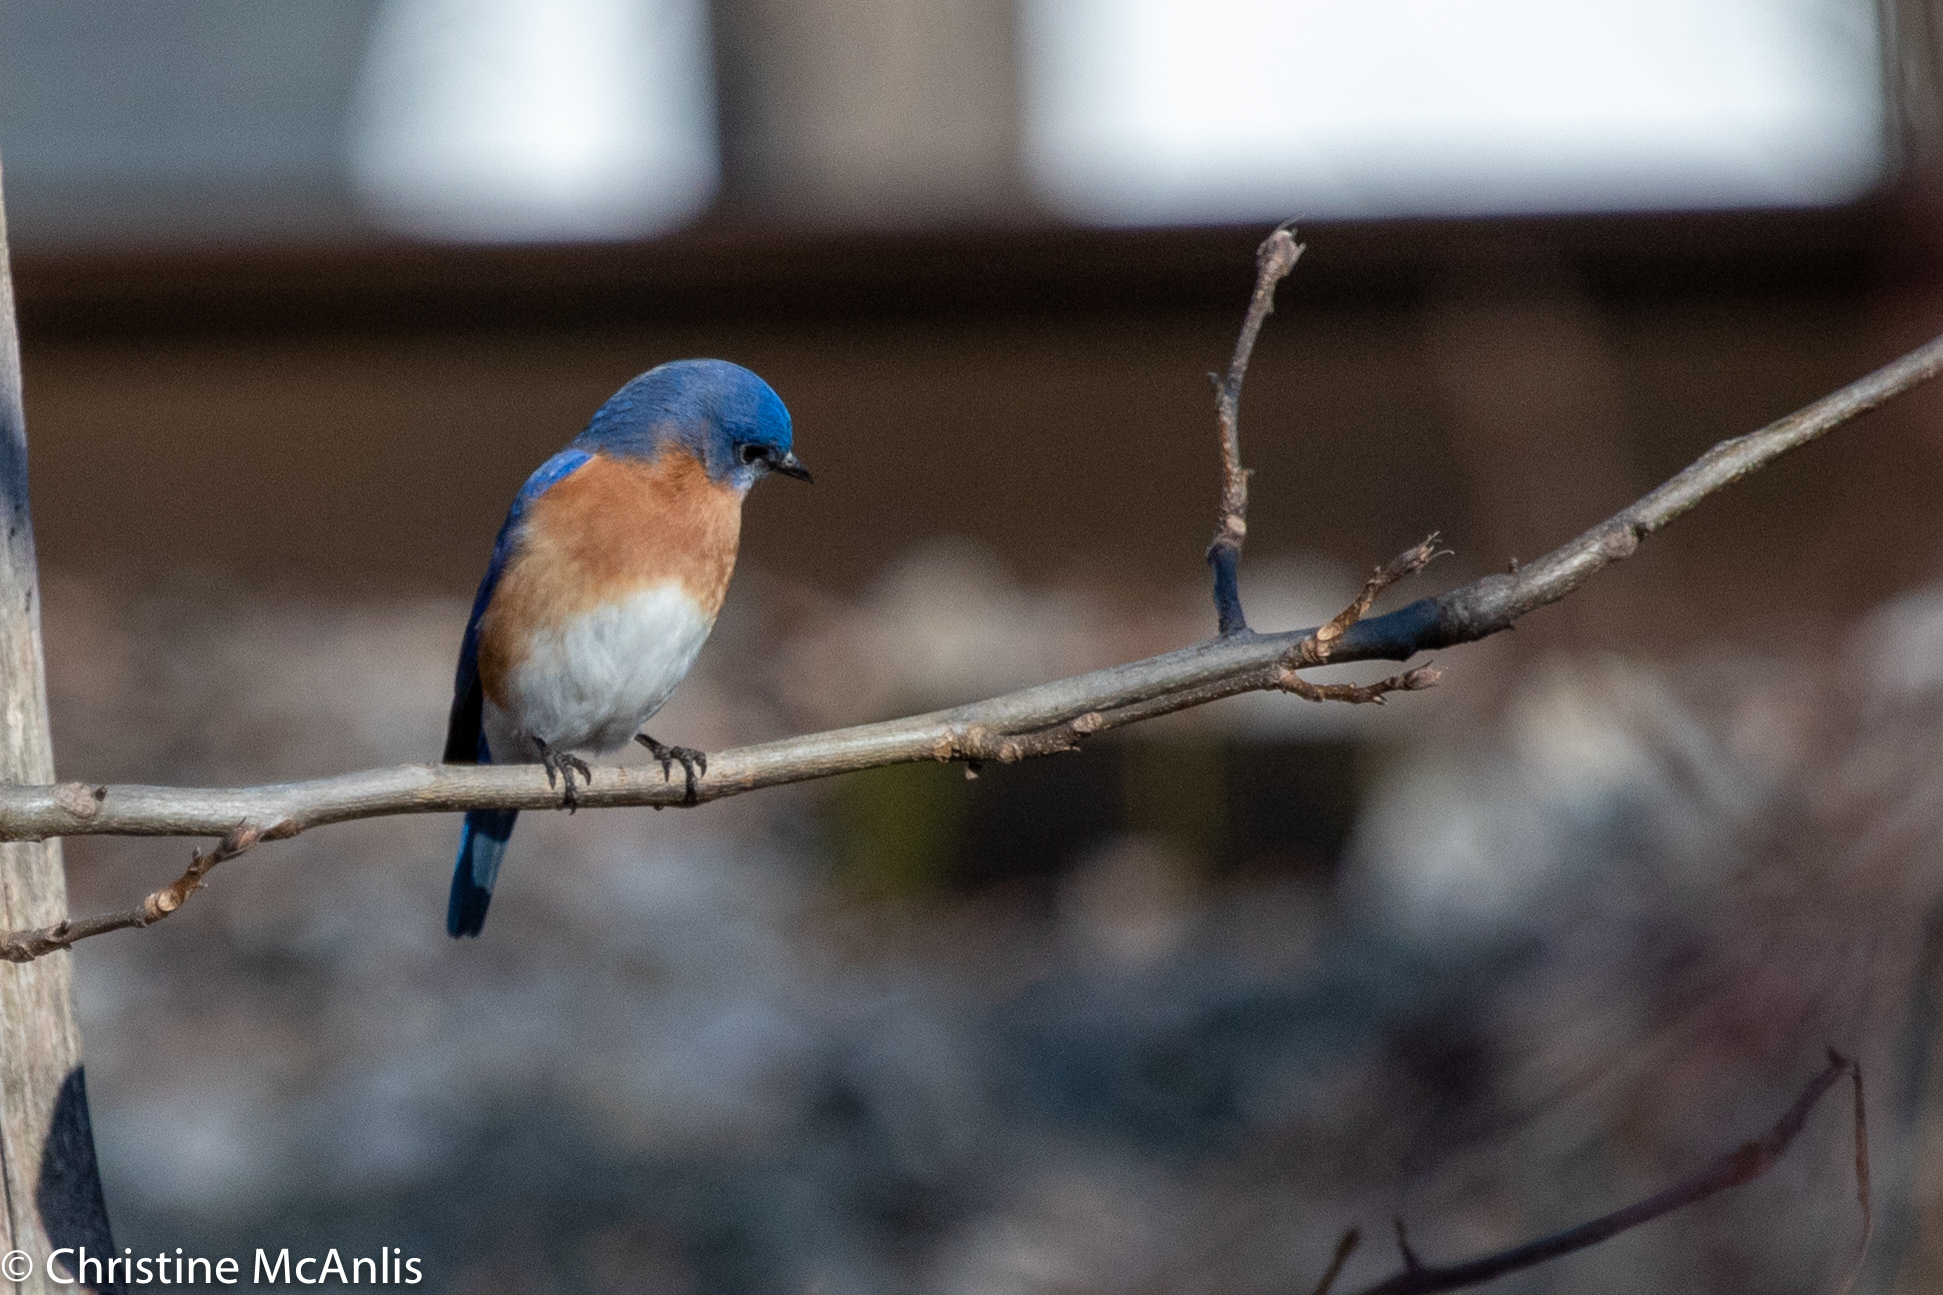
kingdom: Animalia
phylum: Chordata
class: Aves
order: Passeriformes
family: Turdidae
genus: Sialia
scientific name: Sialia sialis
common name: Eastern bluebird
